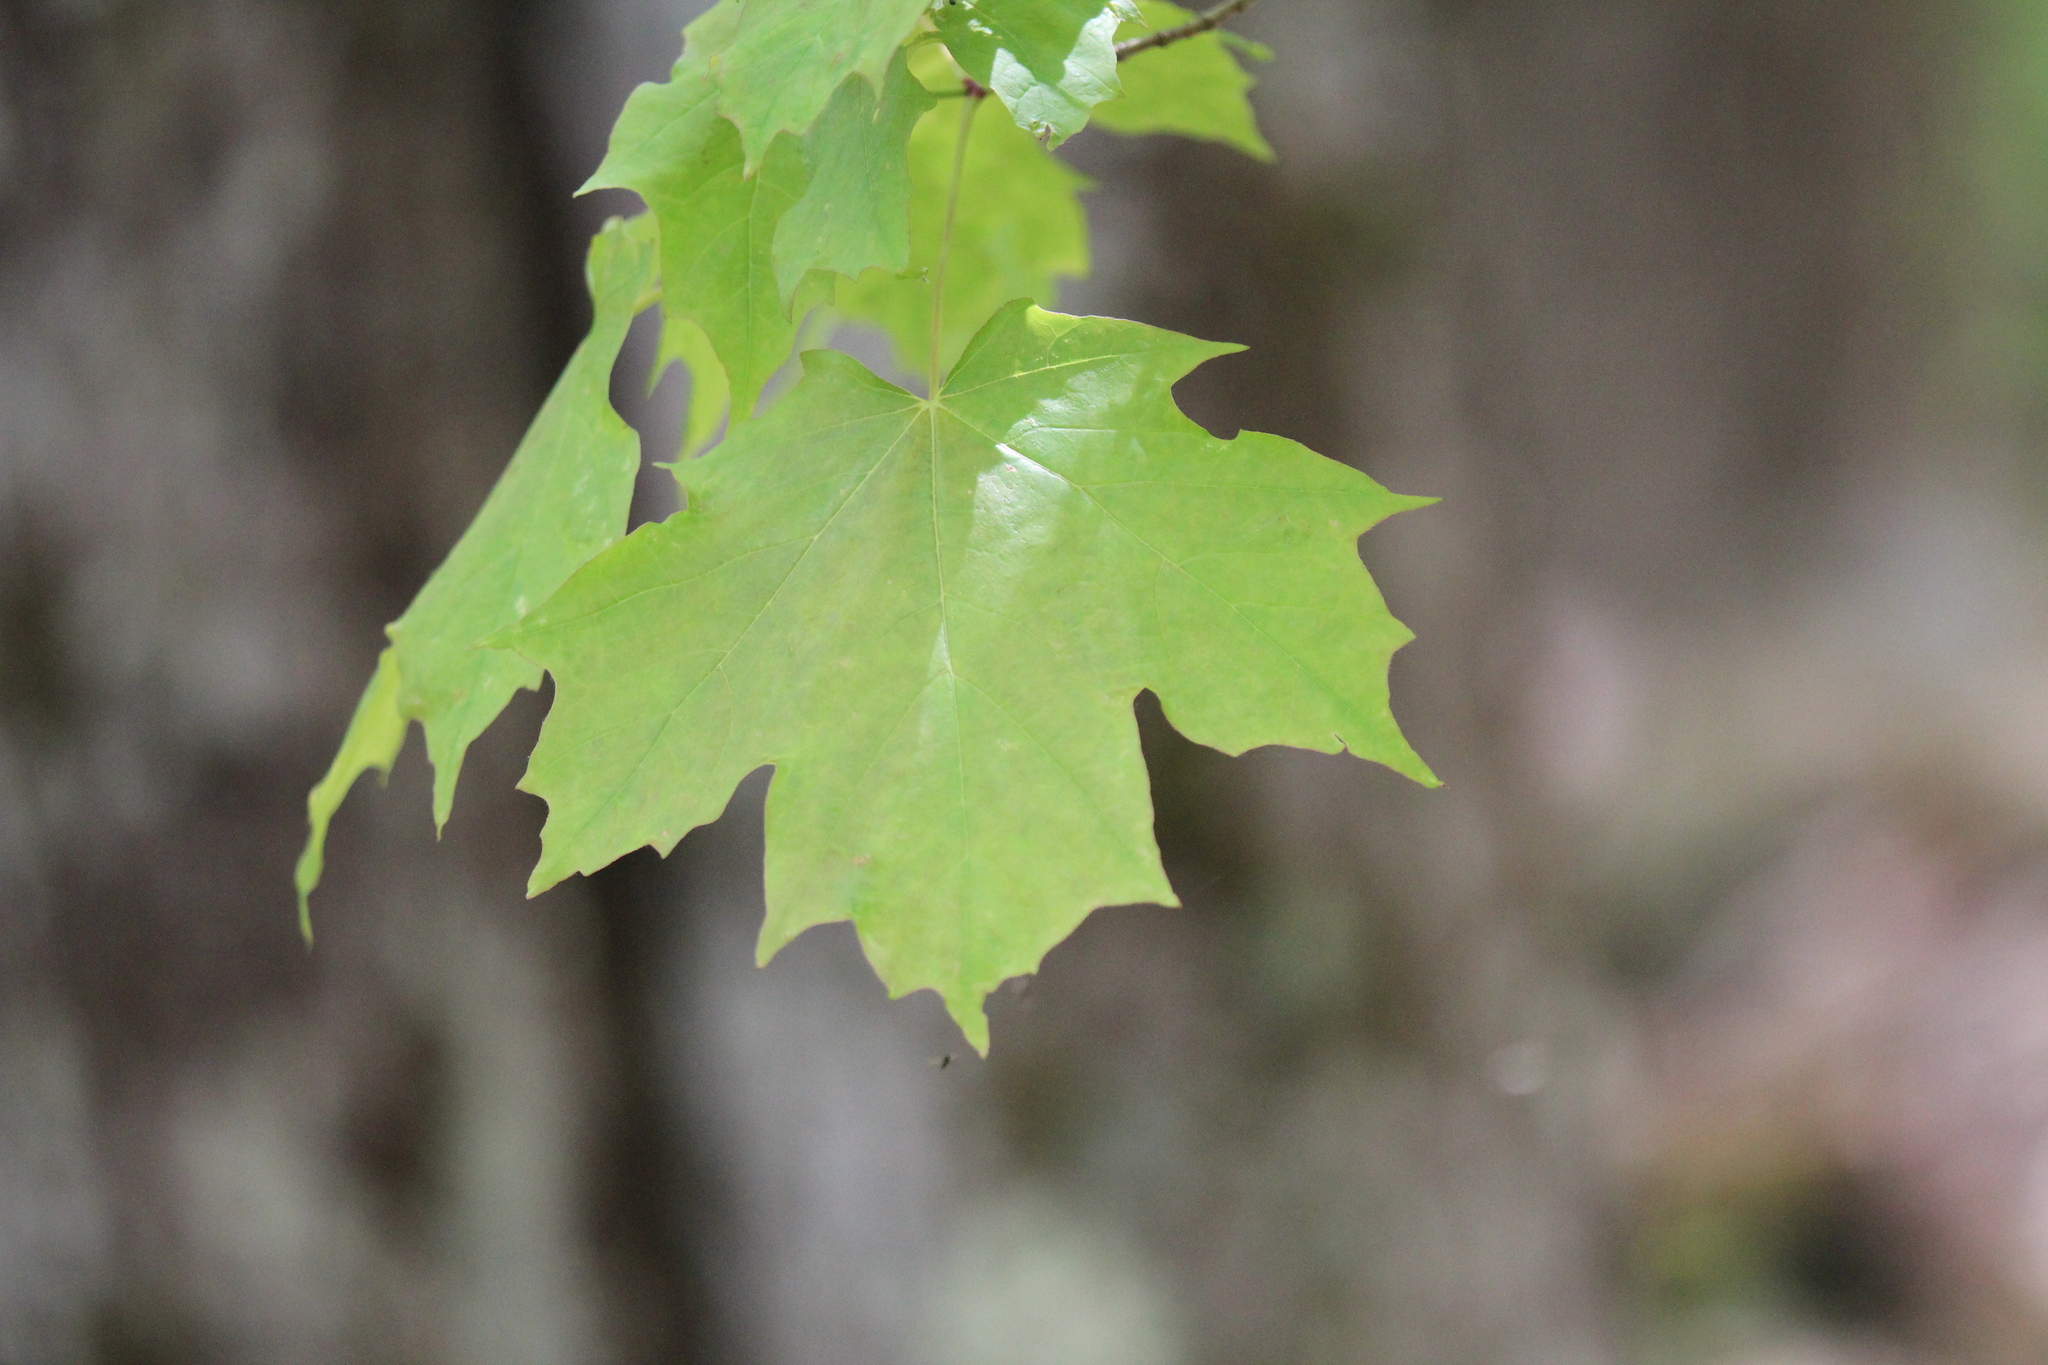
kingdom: Plantae
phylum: Tracheophyta
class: Magnoliopsida
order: Sapindales
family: Sapindaceae
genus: Acer
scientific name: Acer saccharum
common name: Sugar maple
